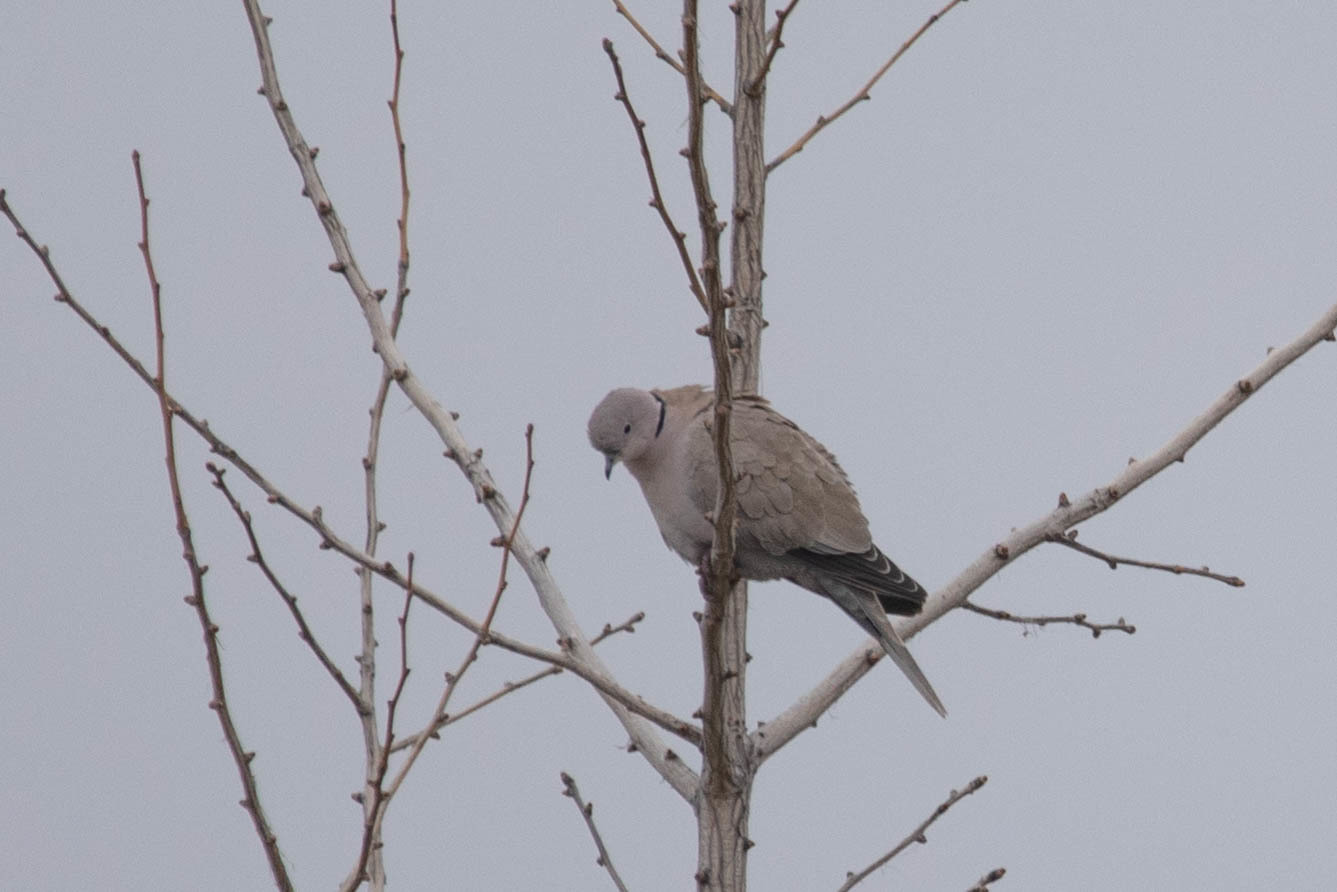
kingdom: Animalia
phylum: Chordata
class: Aves
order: Columbiformes
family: Columbidae
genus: Streptopelia
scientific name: Streptopelia decaocto
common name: Eurasian collared dove
